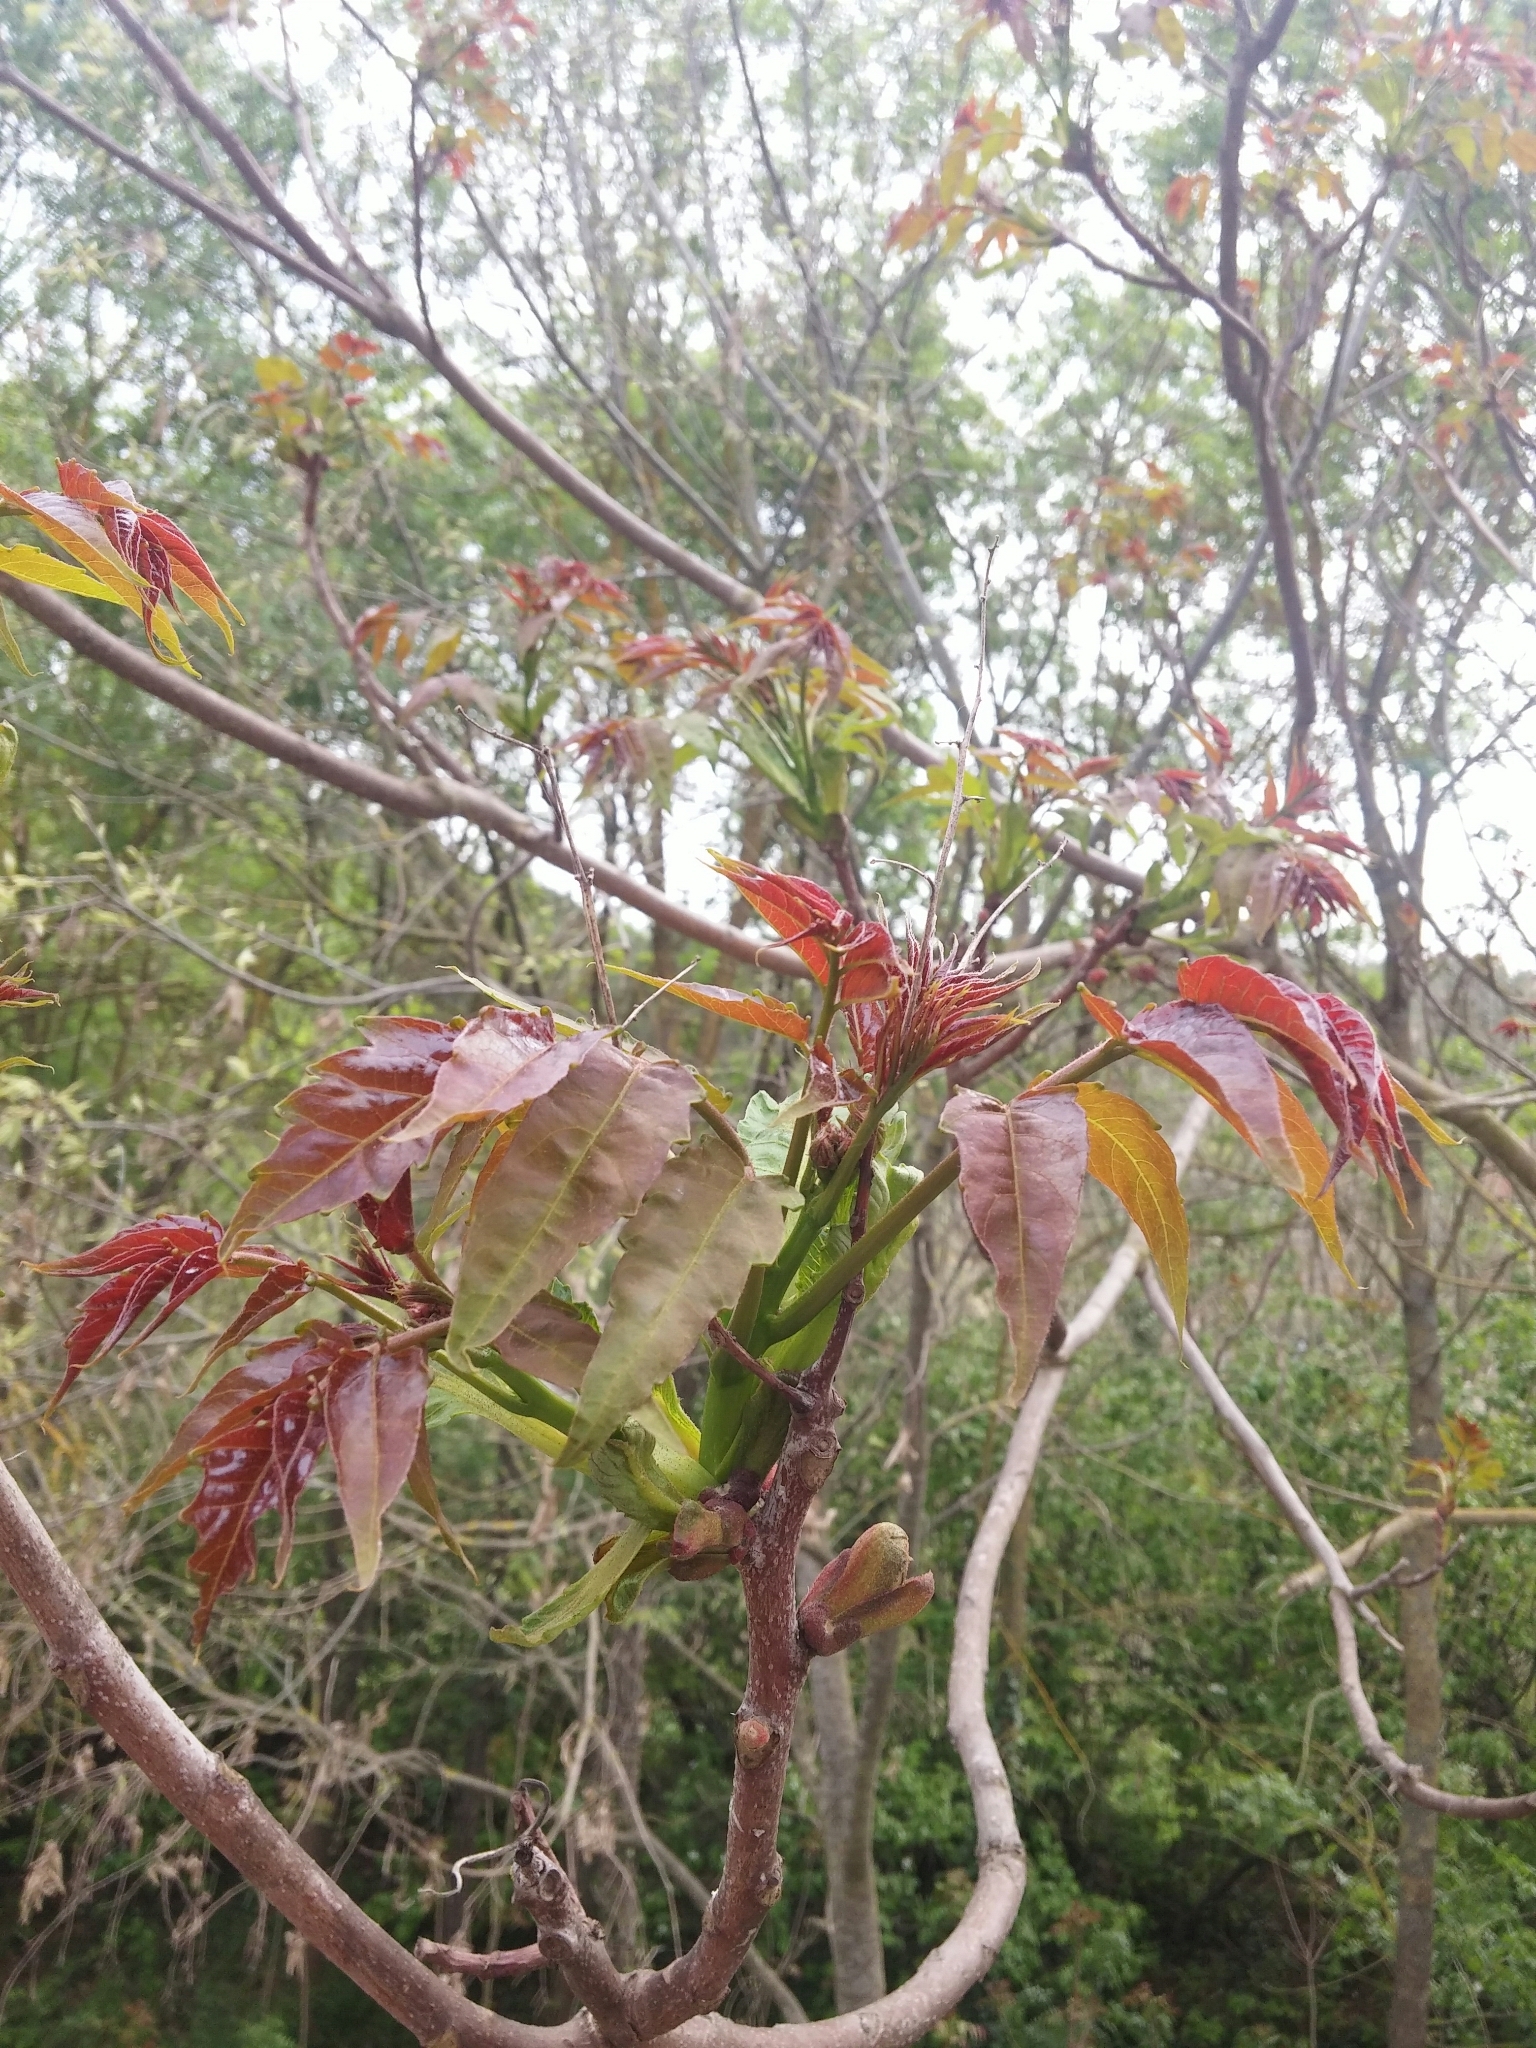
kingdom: Plantae
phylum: Tracheophyta
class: Magnoliopsida
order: Sapindales
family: Simaroubaceae
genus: Ailanthus
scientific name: Ailanthus altissima
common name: Tree-of-heaven
